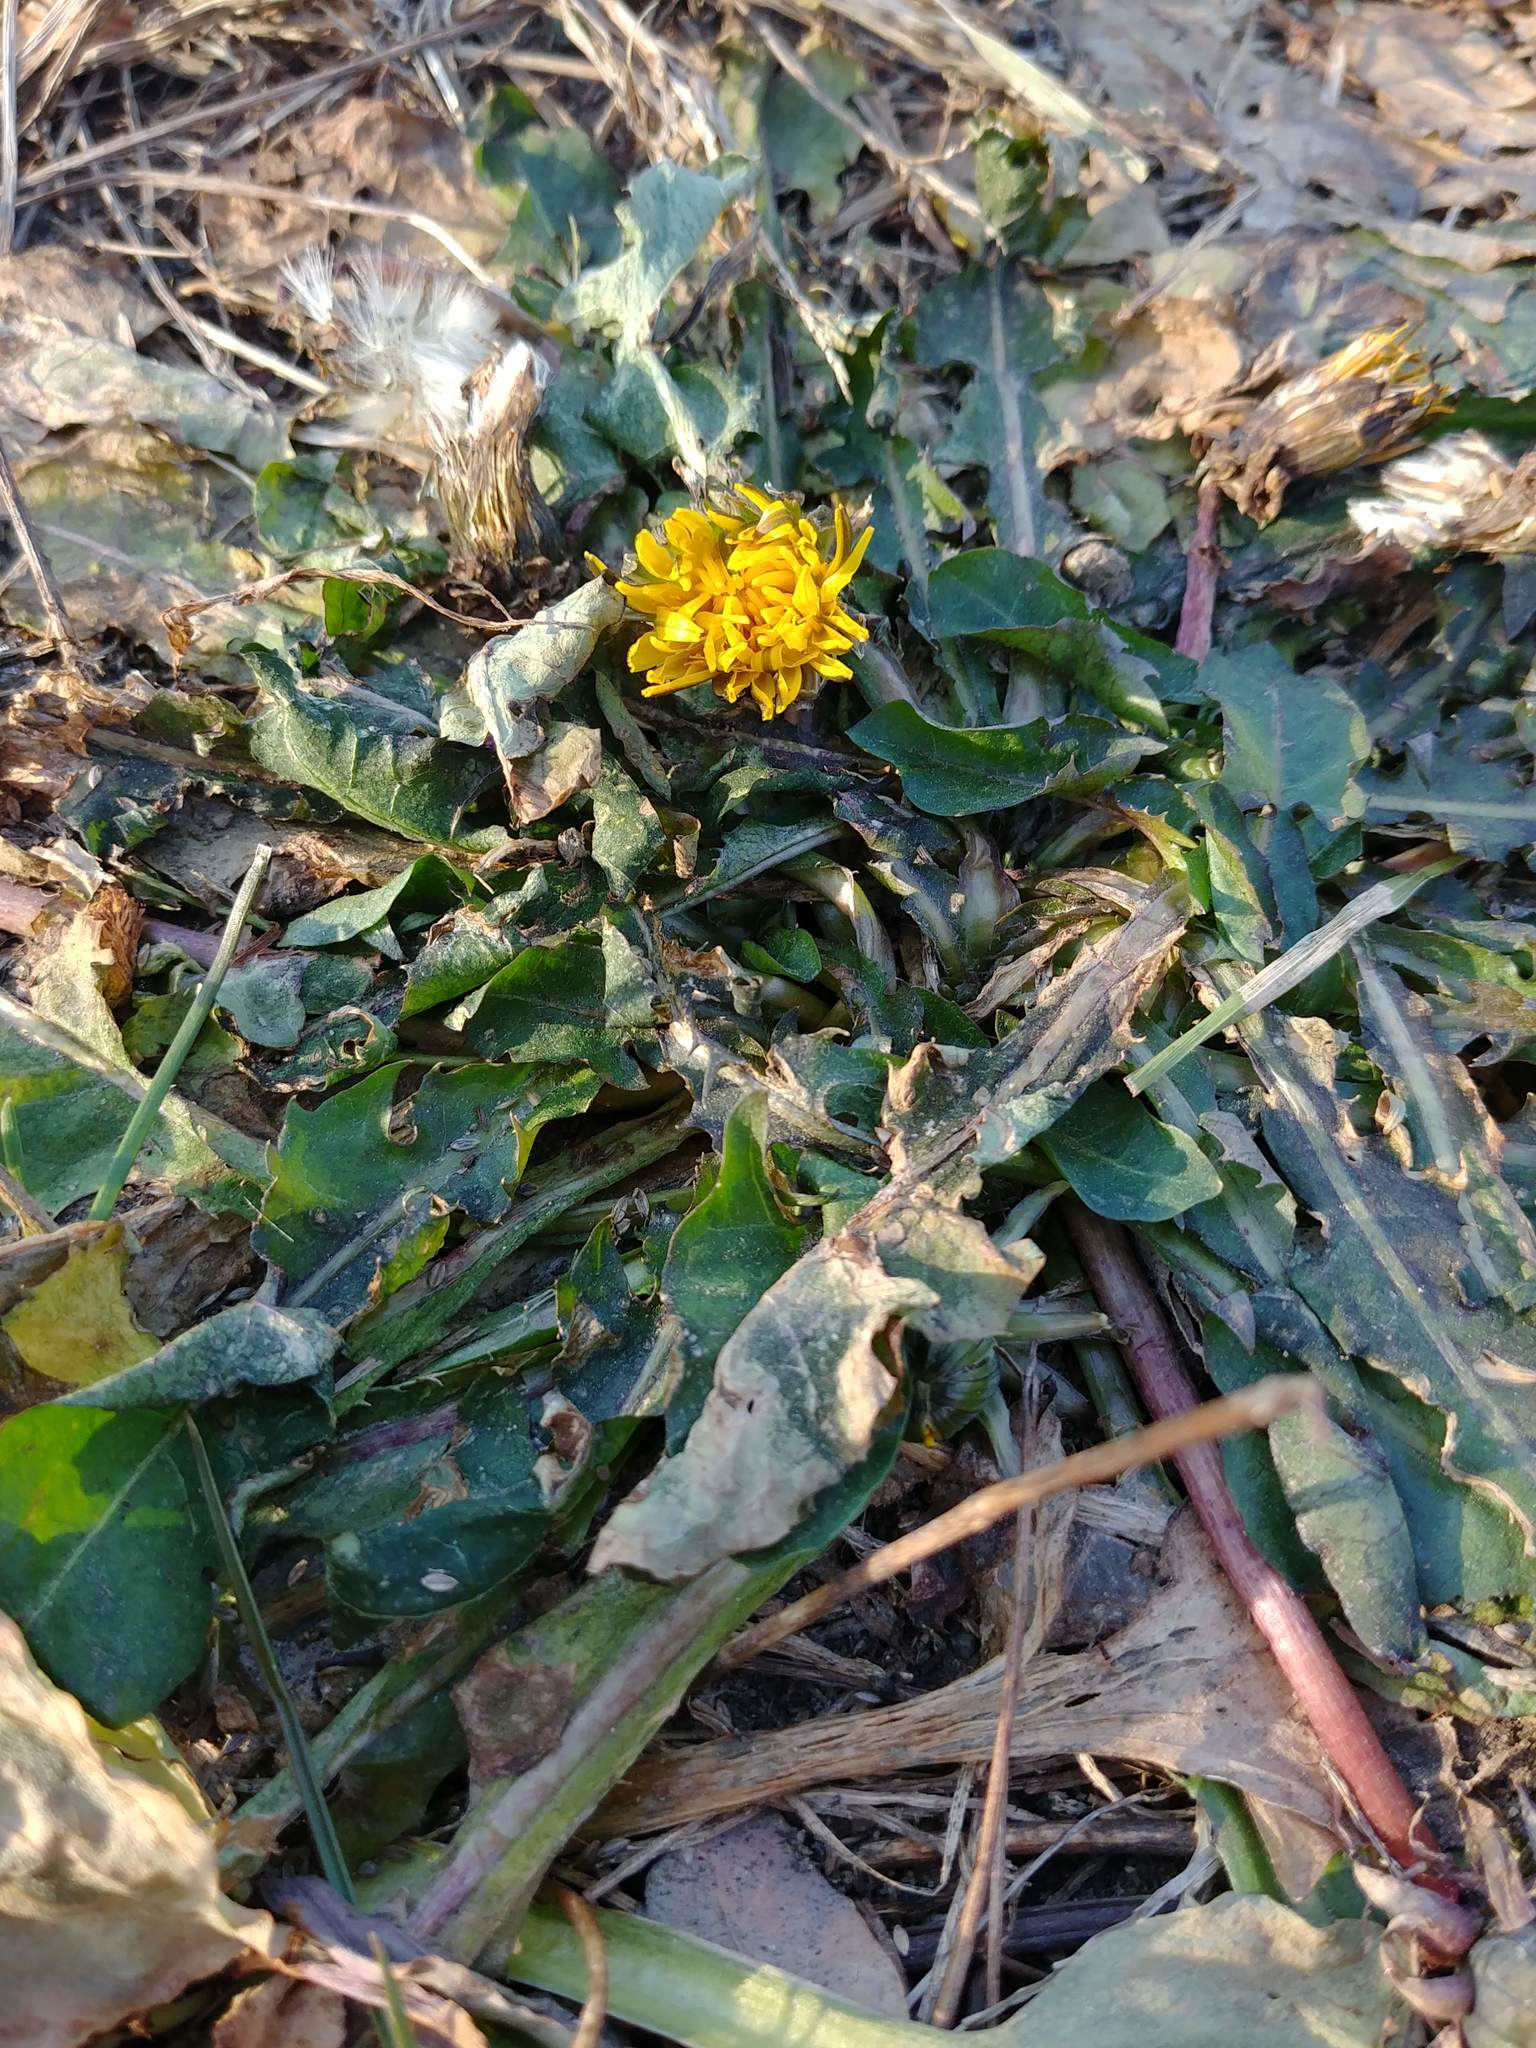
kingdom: Plantae
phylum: Tracheophyta
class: Magnoliopsida
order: Asterales
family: Asteraceae
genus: Taraxacum
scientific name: Taraxacum officinale
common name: Common dandelion
